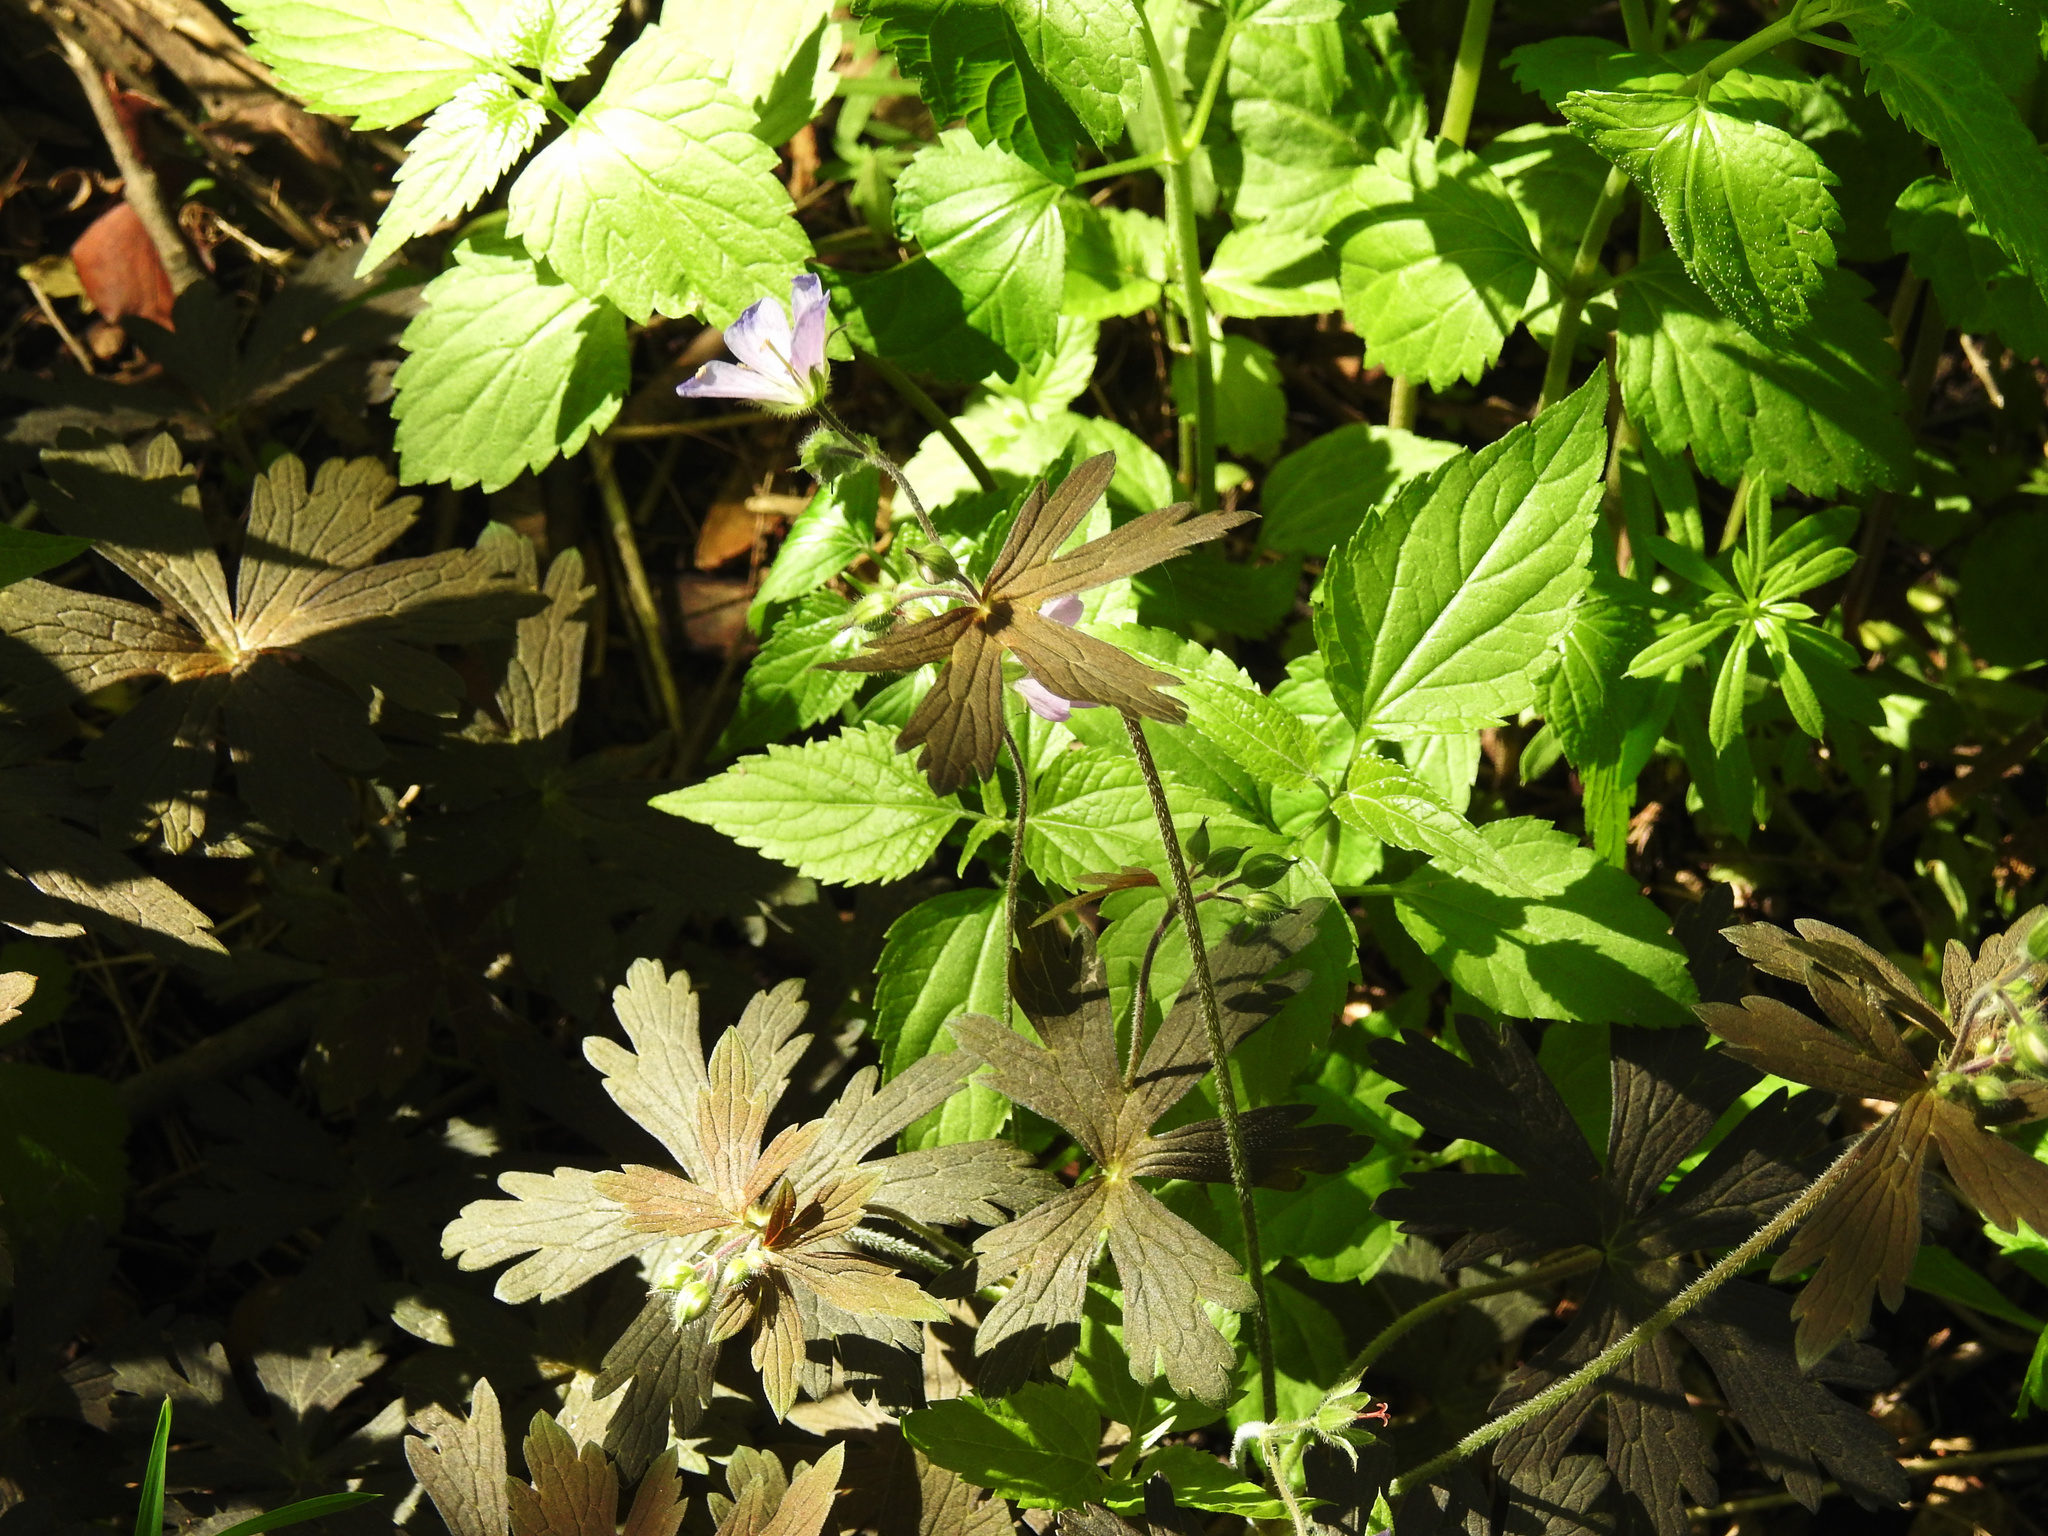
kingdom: Plantae
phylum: Tracheophyta
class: Magnoliopsida
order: Geraniales
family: Geraniaceae
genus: Geranium
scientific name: Geranium maculatum
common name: Spotted geranium
